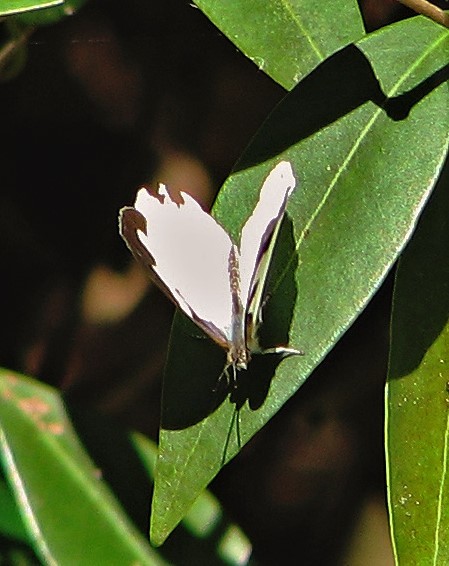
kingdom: Animalia
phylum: Arthropoda
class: Insecta
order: Lepidoptera
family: Nymphalidae
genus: Dynamine
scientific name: Dynamine myrrhina
